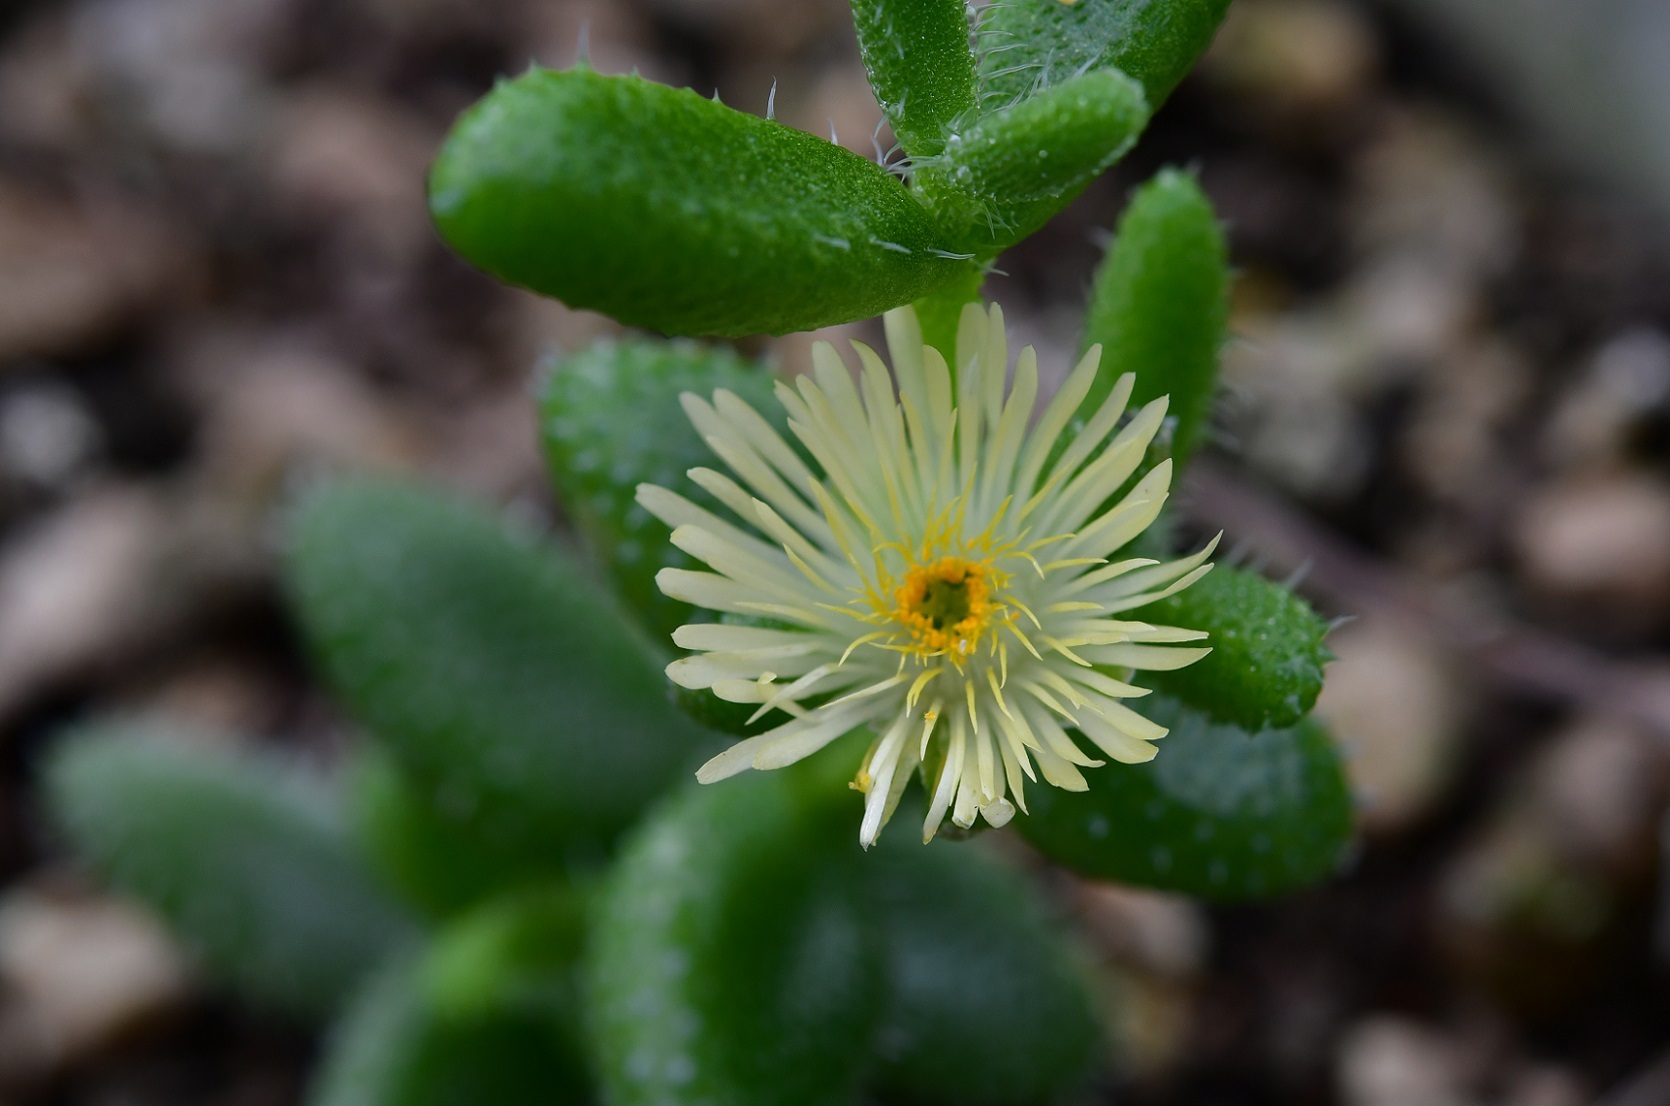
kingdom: Plantae
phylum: Tracheophyta
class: Magnoliopsida
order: Caryophyllales
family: Aizoaceae
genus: Delosperma
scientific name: Delosperma echinatum
